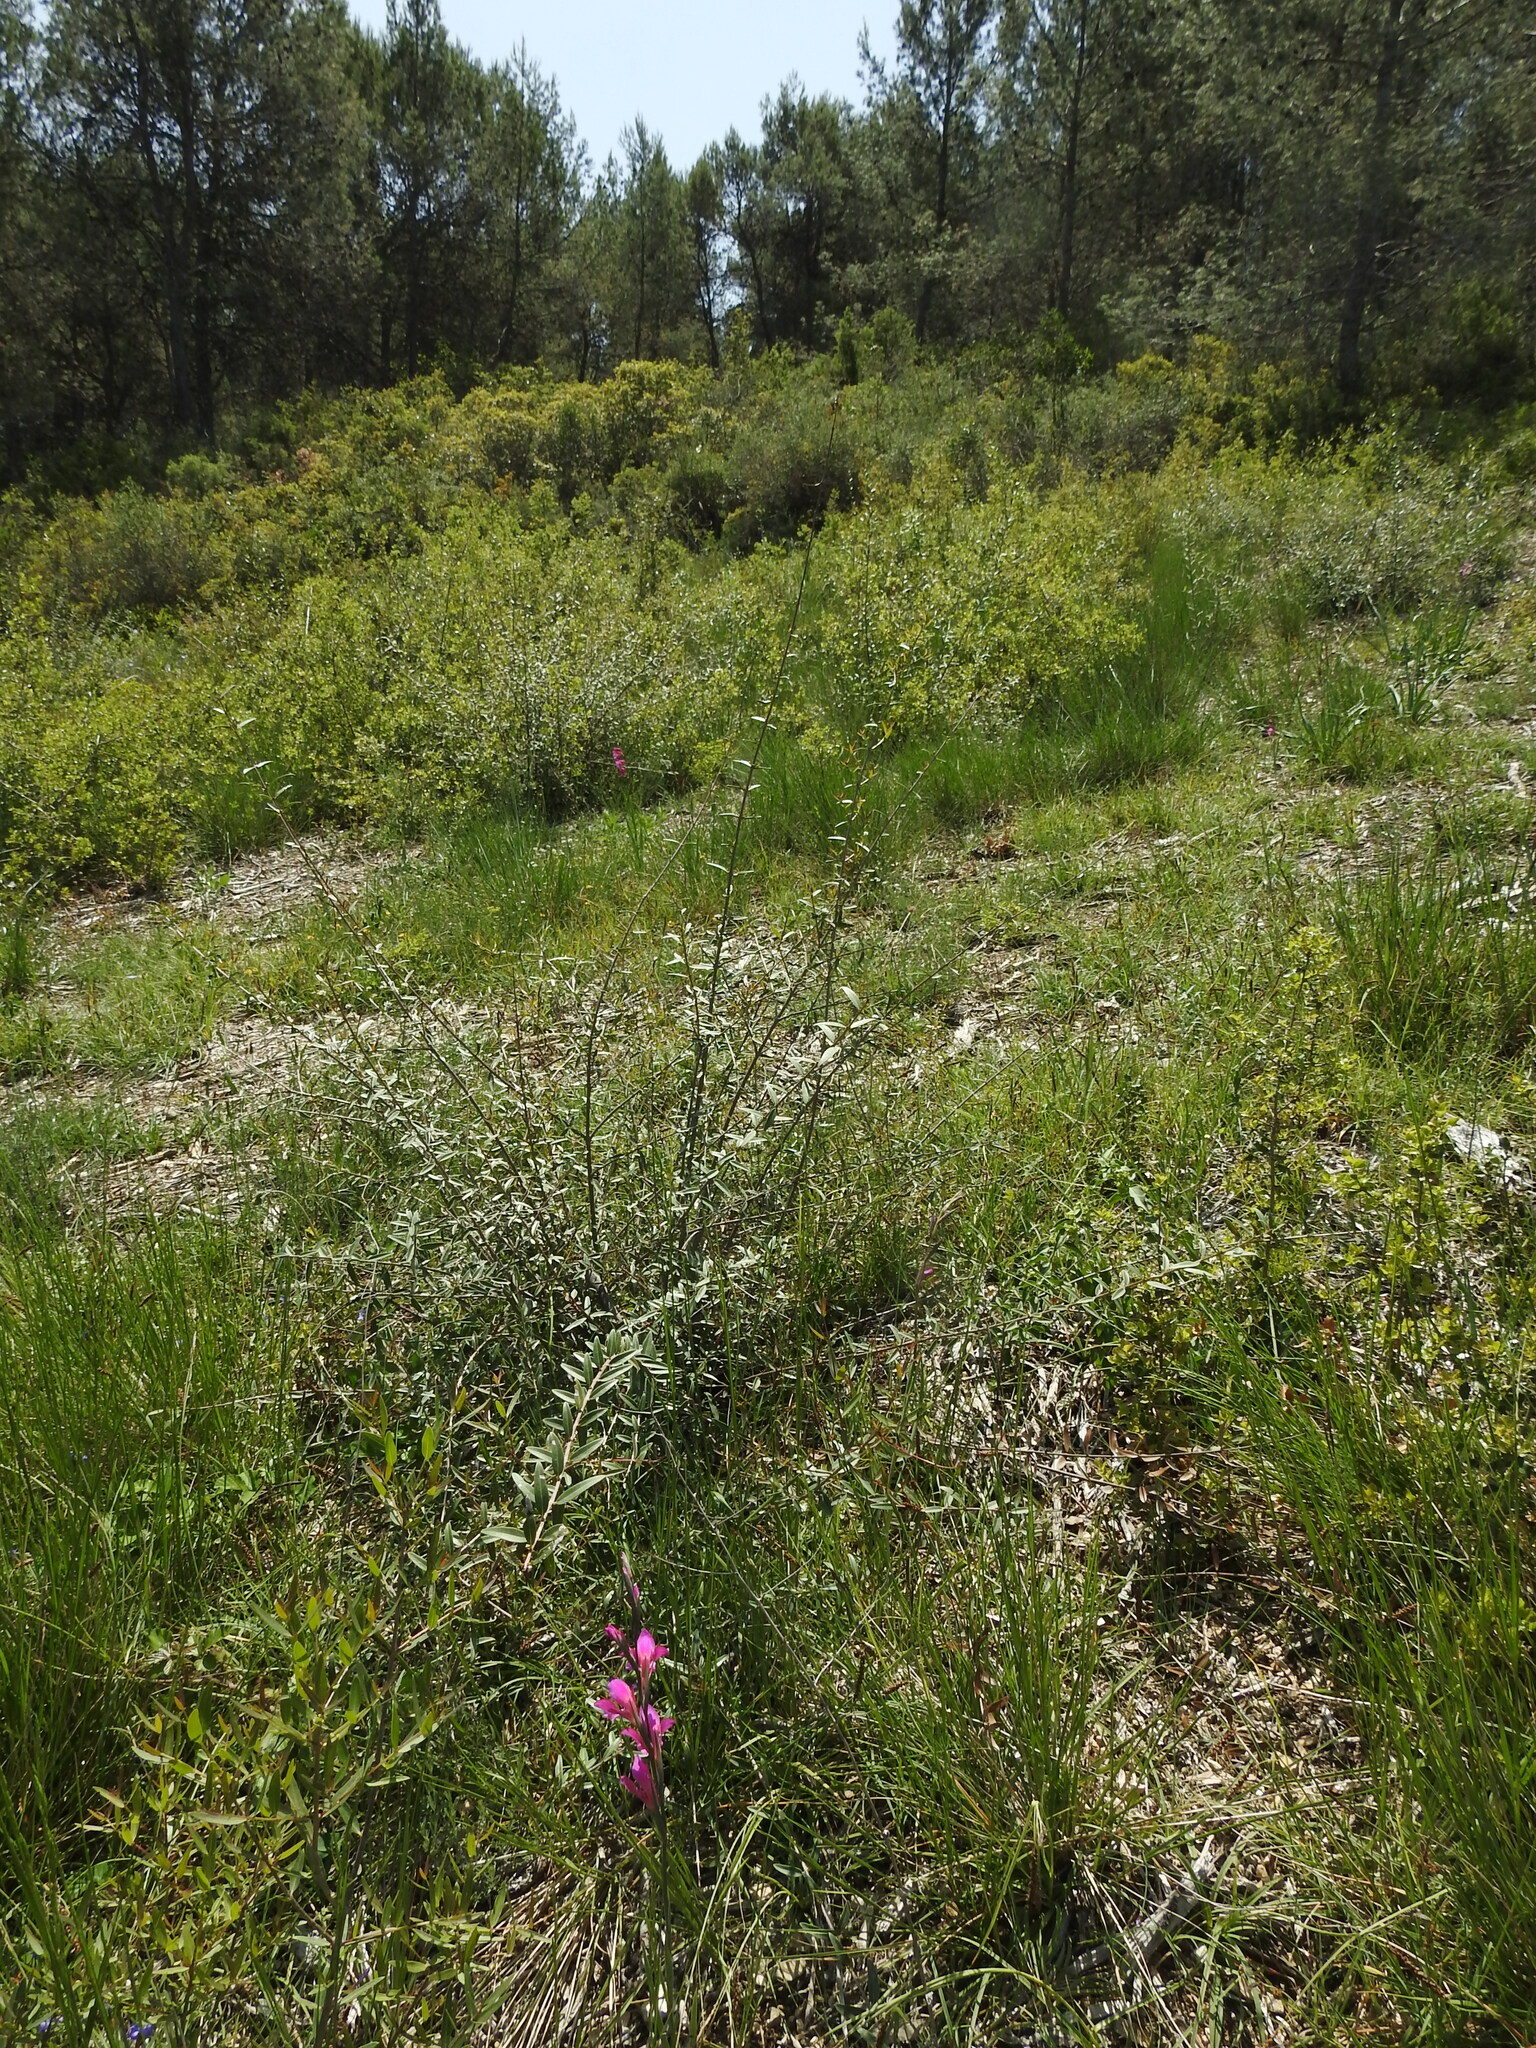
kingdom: Plantae
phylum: Tracheophyta
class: Liliopsida
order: Asparagales
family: Iridaceae
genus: Gladiolus
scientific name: Gladiolus dubius
